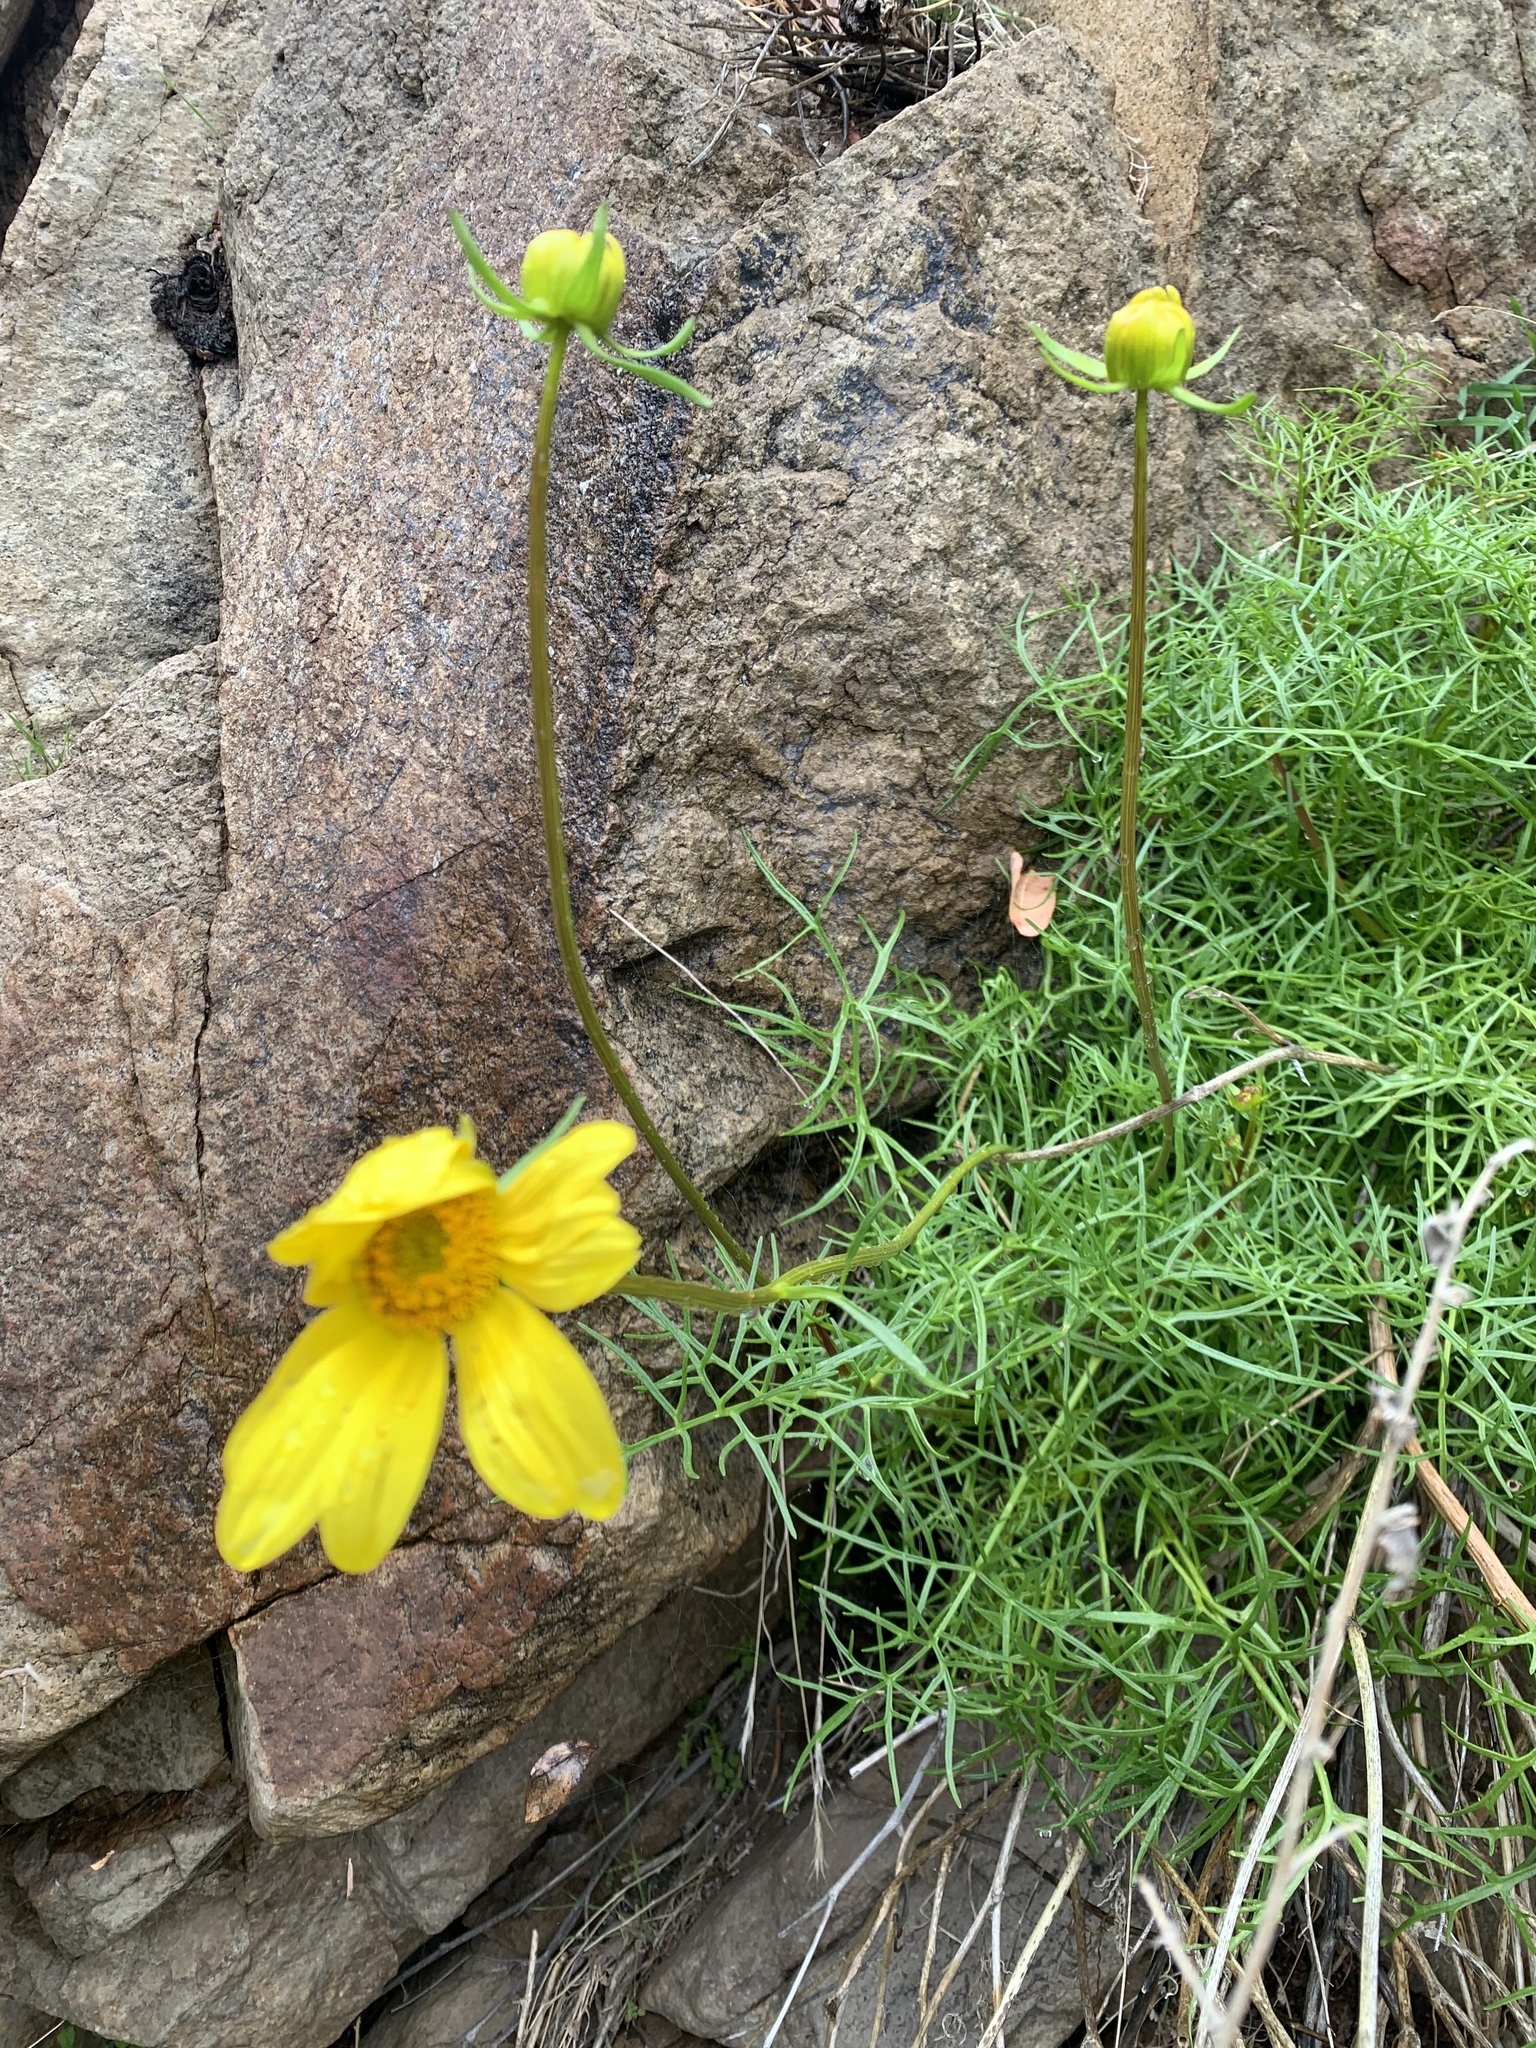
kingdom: Plantae
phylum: Tracheophyta
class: Magnoliopsida
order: Asterales
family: Asteraceae
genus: Coreopsis
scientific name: Coreopsis maritima
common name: Sea-dahlia
